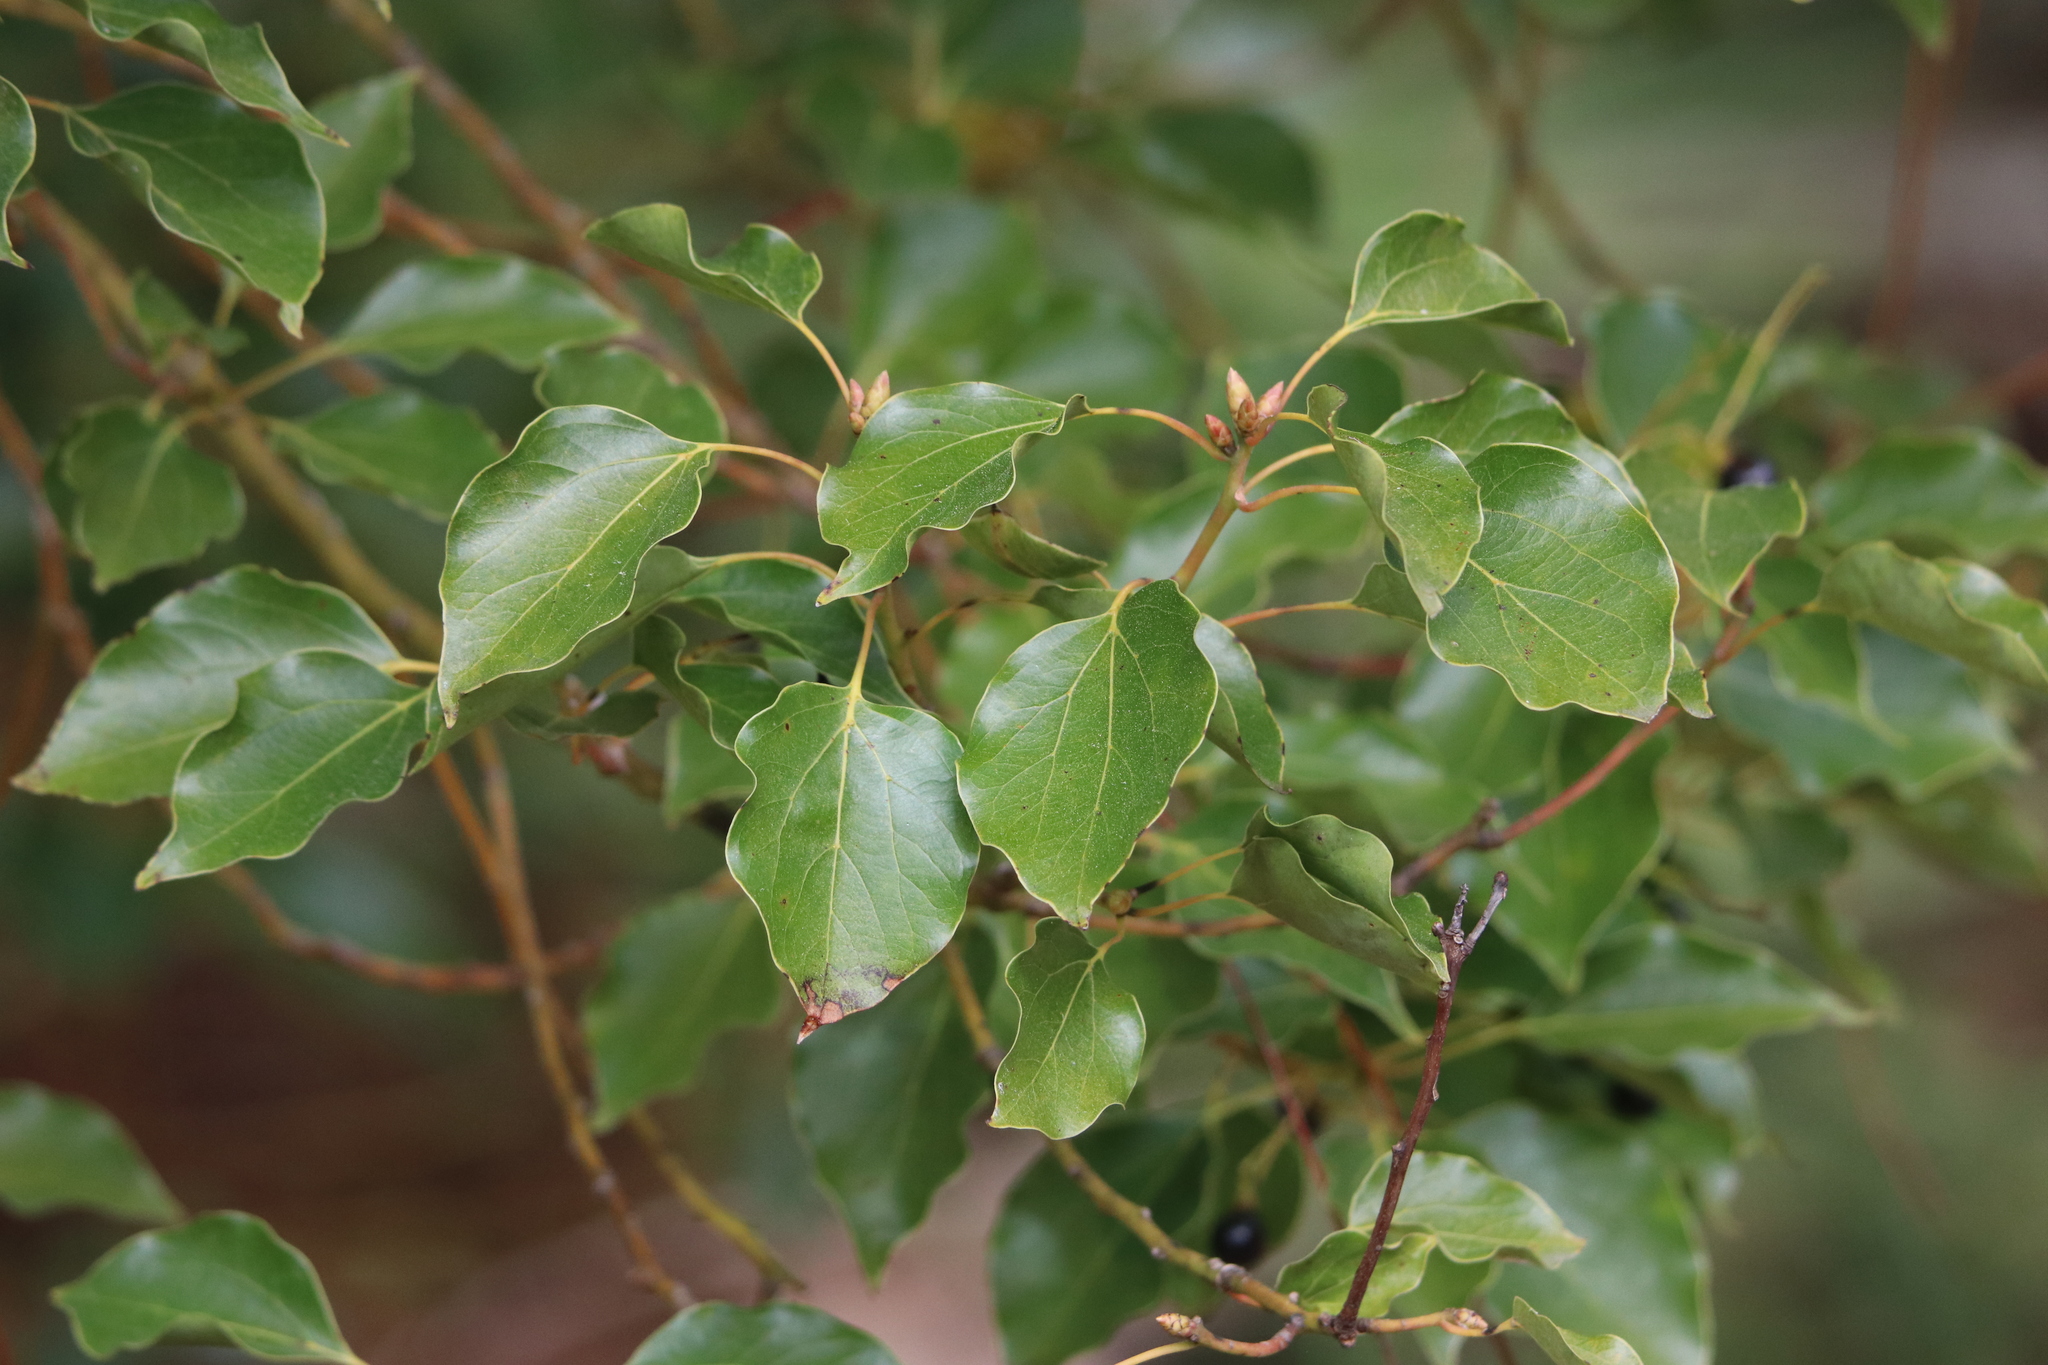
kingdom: Plantae
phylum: Tracheophyta
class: Magnoliopsida
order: Laurales
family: Lauraceae
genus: Cinnamomum
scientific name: Cinnamomum camphora
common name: Camphortree
